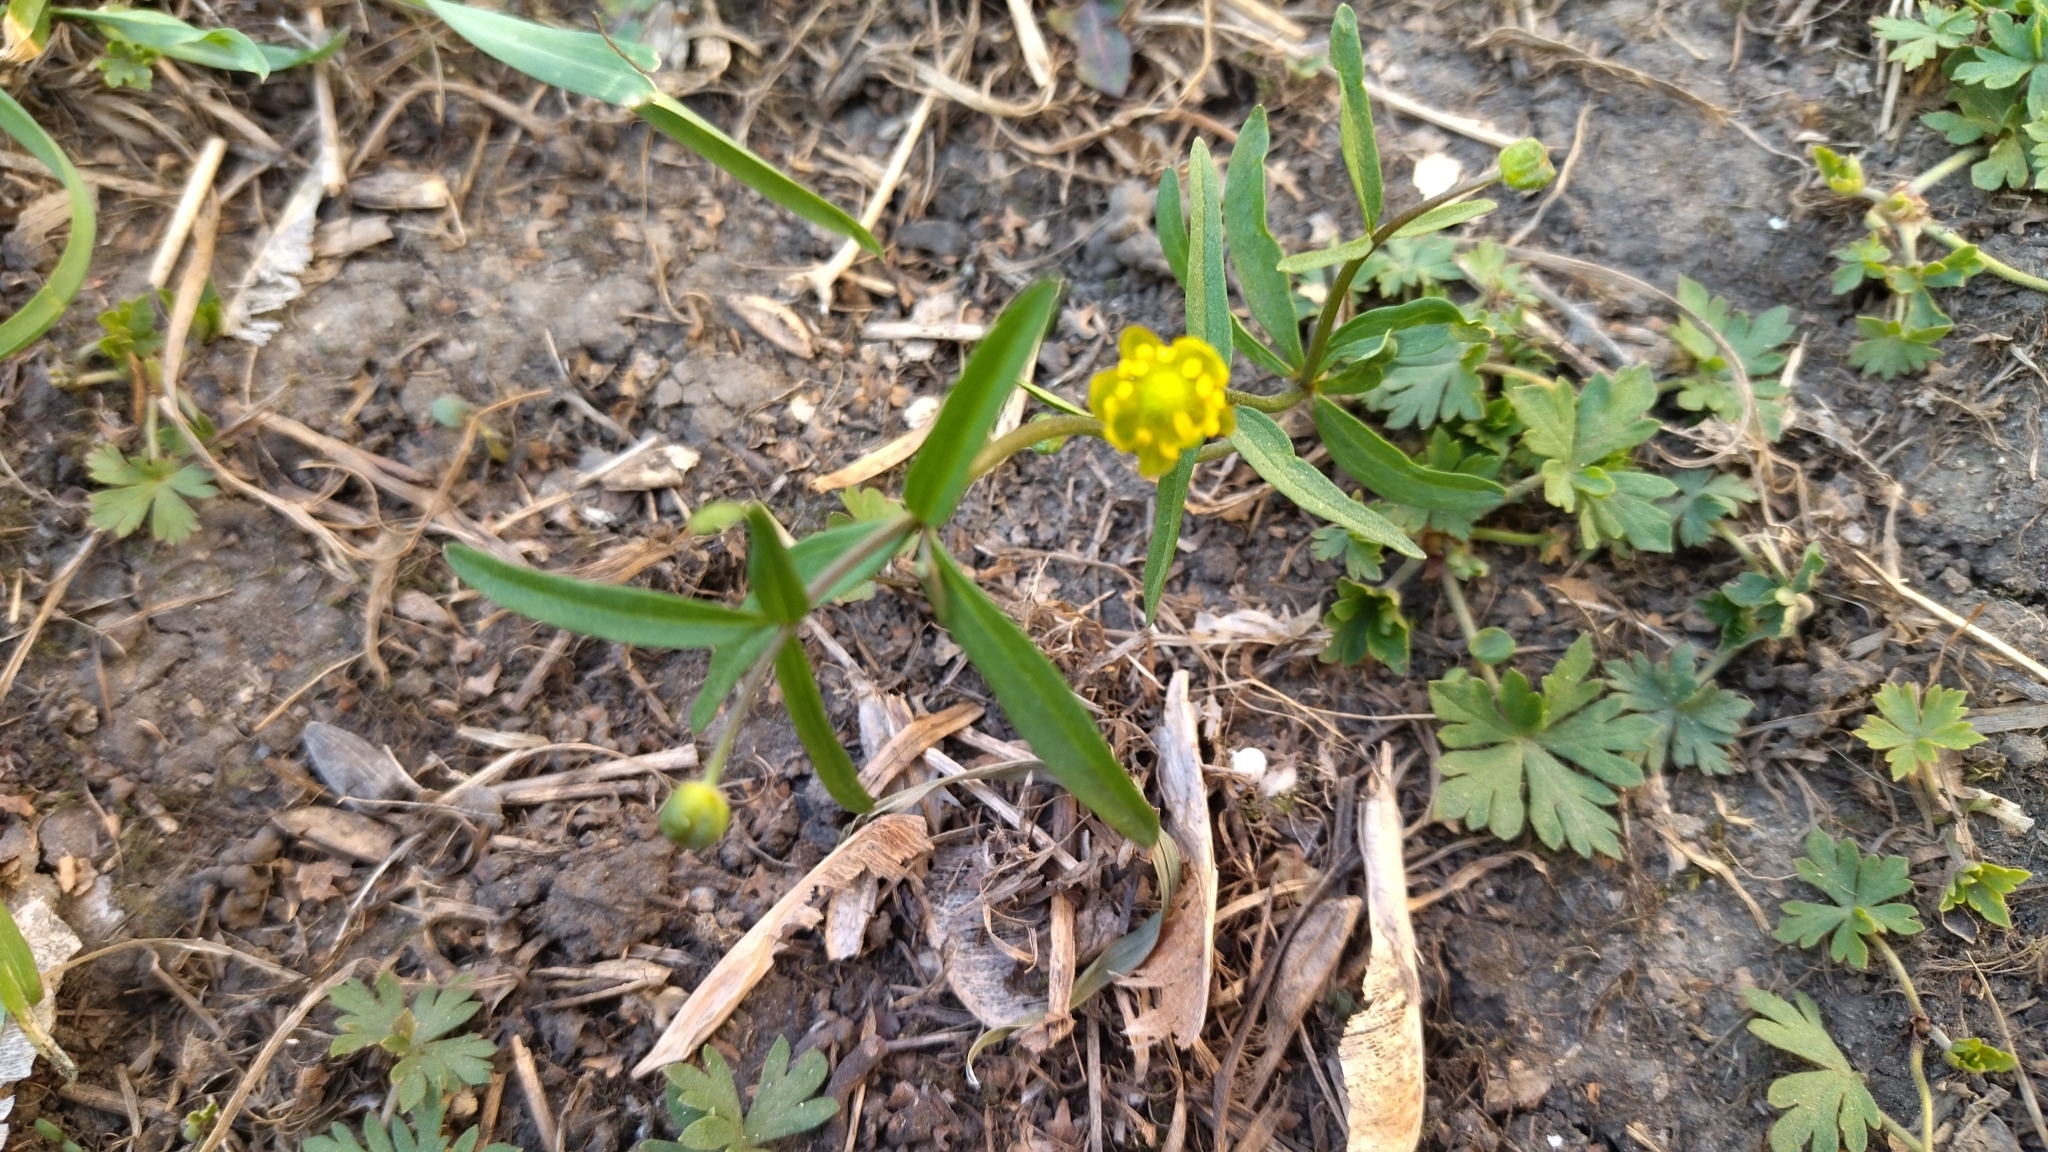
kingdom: Plantae
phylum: Tracheophyta
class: Magnoliopsida
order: Ranunculales
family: Ranunculaceae
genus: Ranunculus
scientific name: Ranunculus monophyllus
